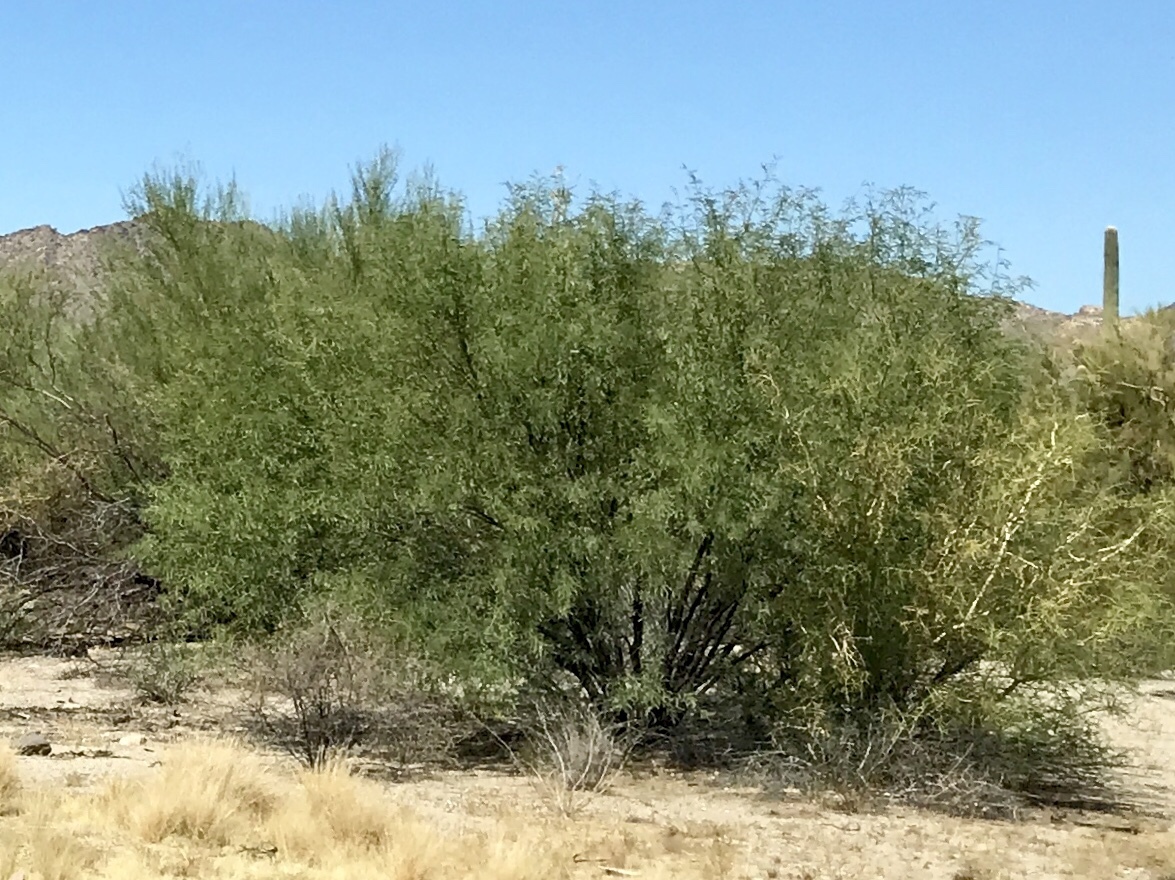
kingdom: Plantae
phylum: Tracheophyta
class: Magnoliopsida
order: Fabales
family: Fabaceae
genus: Prosopis
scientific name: Prosopis velutina
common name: Velvet mesquite
